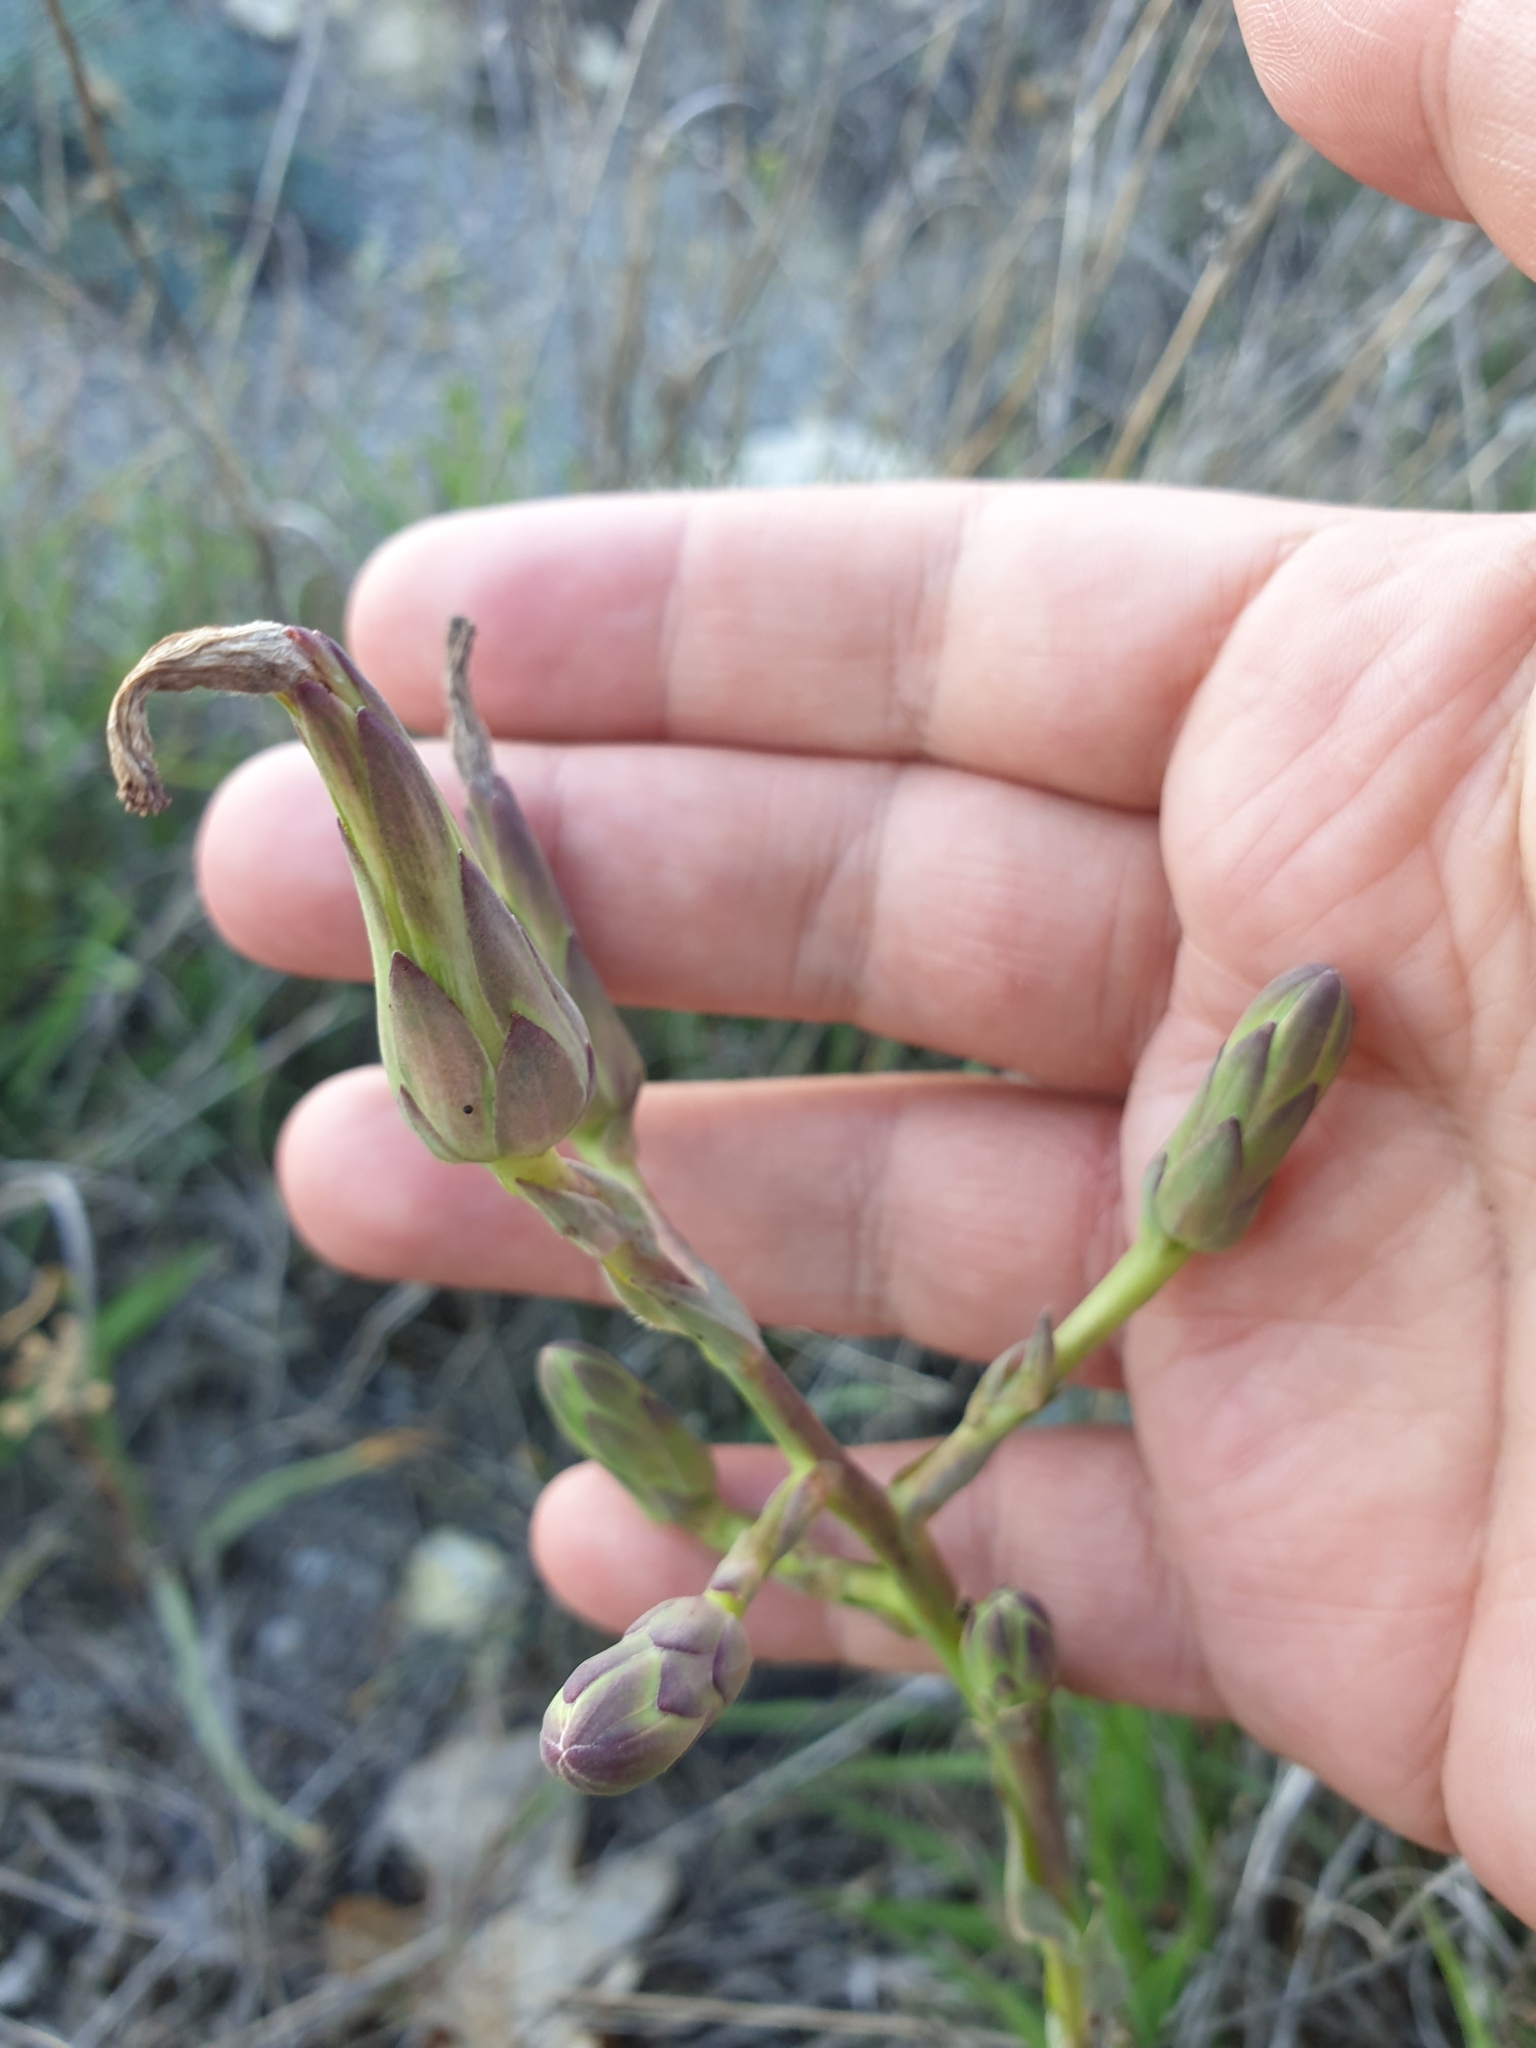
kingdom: Plantae
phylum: Tracheophyta
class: Magnoliopsida
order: Asterales
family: Asteraceae
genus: Lactuca
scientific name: Lactuca tuberosa
